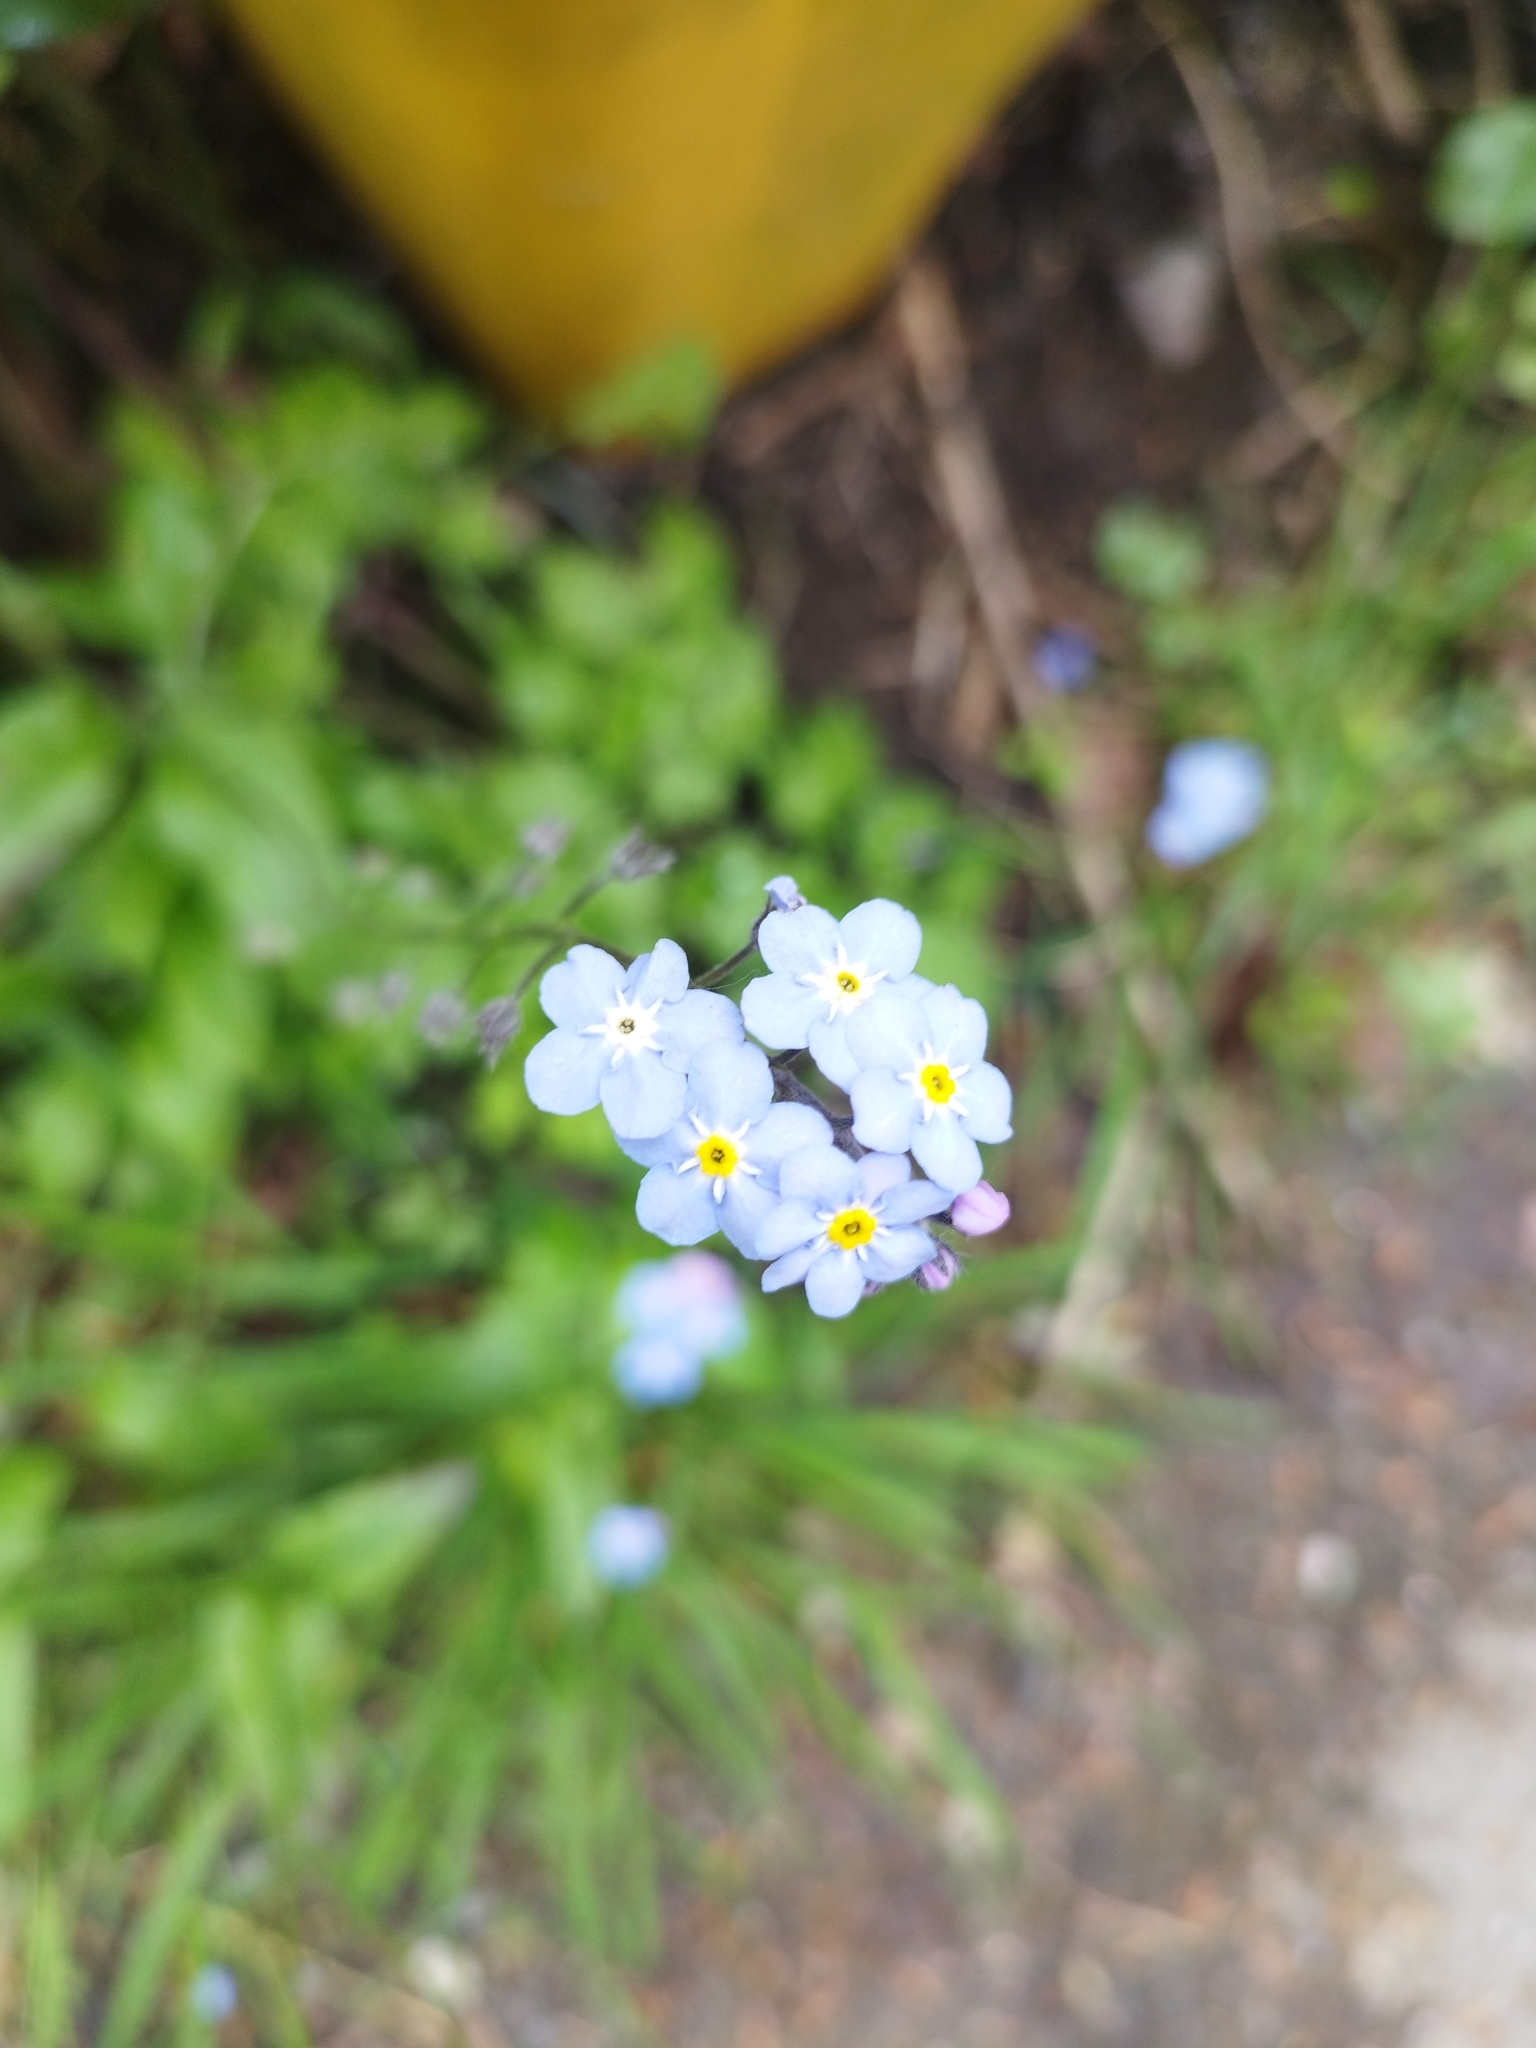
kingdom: Plantae
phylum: Tracheophyta
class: Magnoliopsida
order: Boraginales
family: Boraginaceae
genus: Myosotis
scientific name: Myosotis sylvatica
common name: Wood forget-me-not
